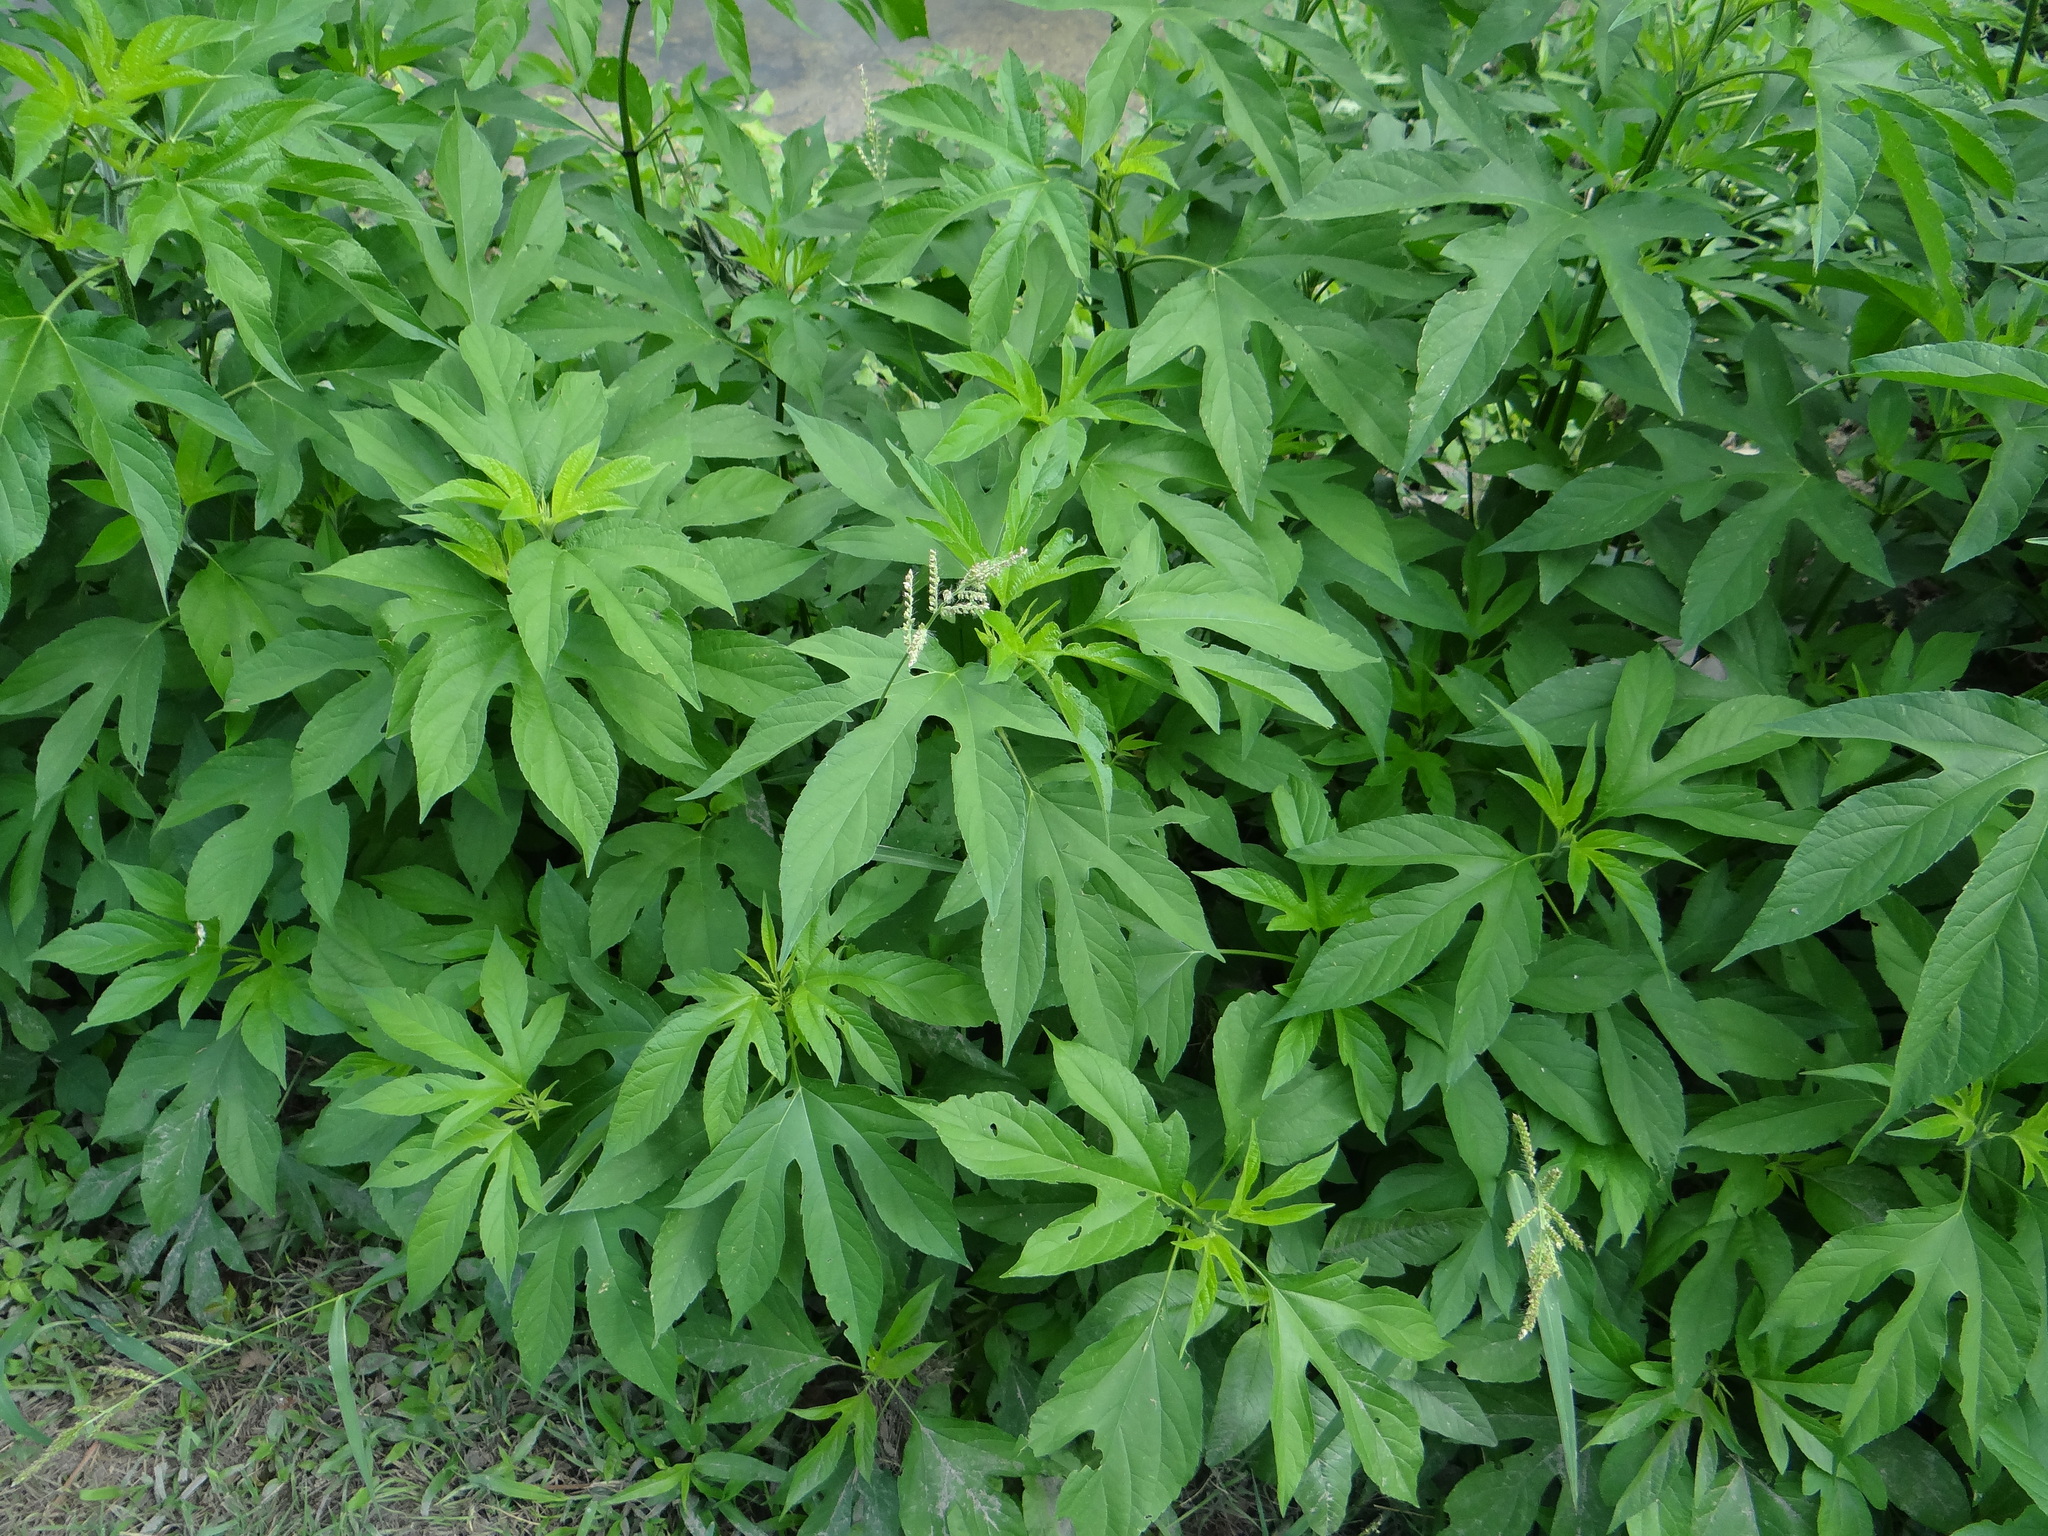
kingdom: Plantae
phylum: Tracheophyta
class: Magnoliopsida
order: Asterales
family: Asteraceae
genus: Ambrosia
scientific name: Ambrosia trifida
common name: Giant ragweed
